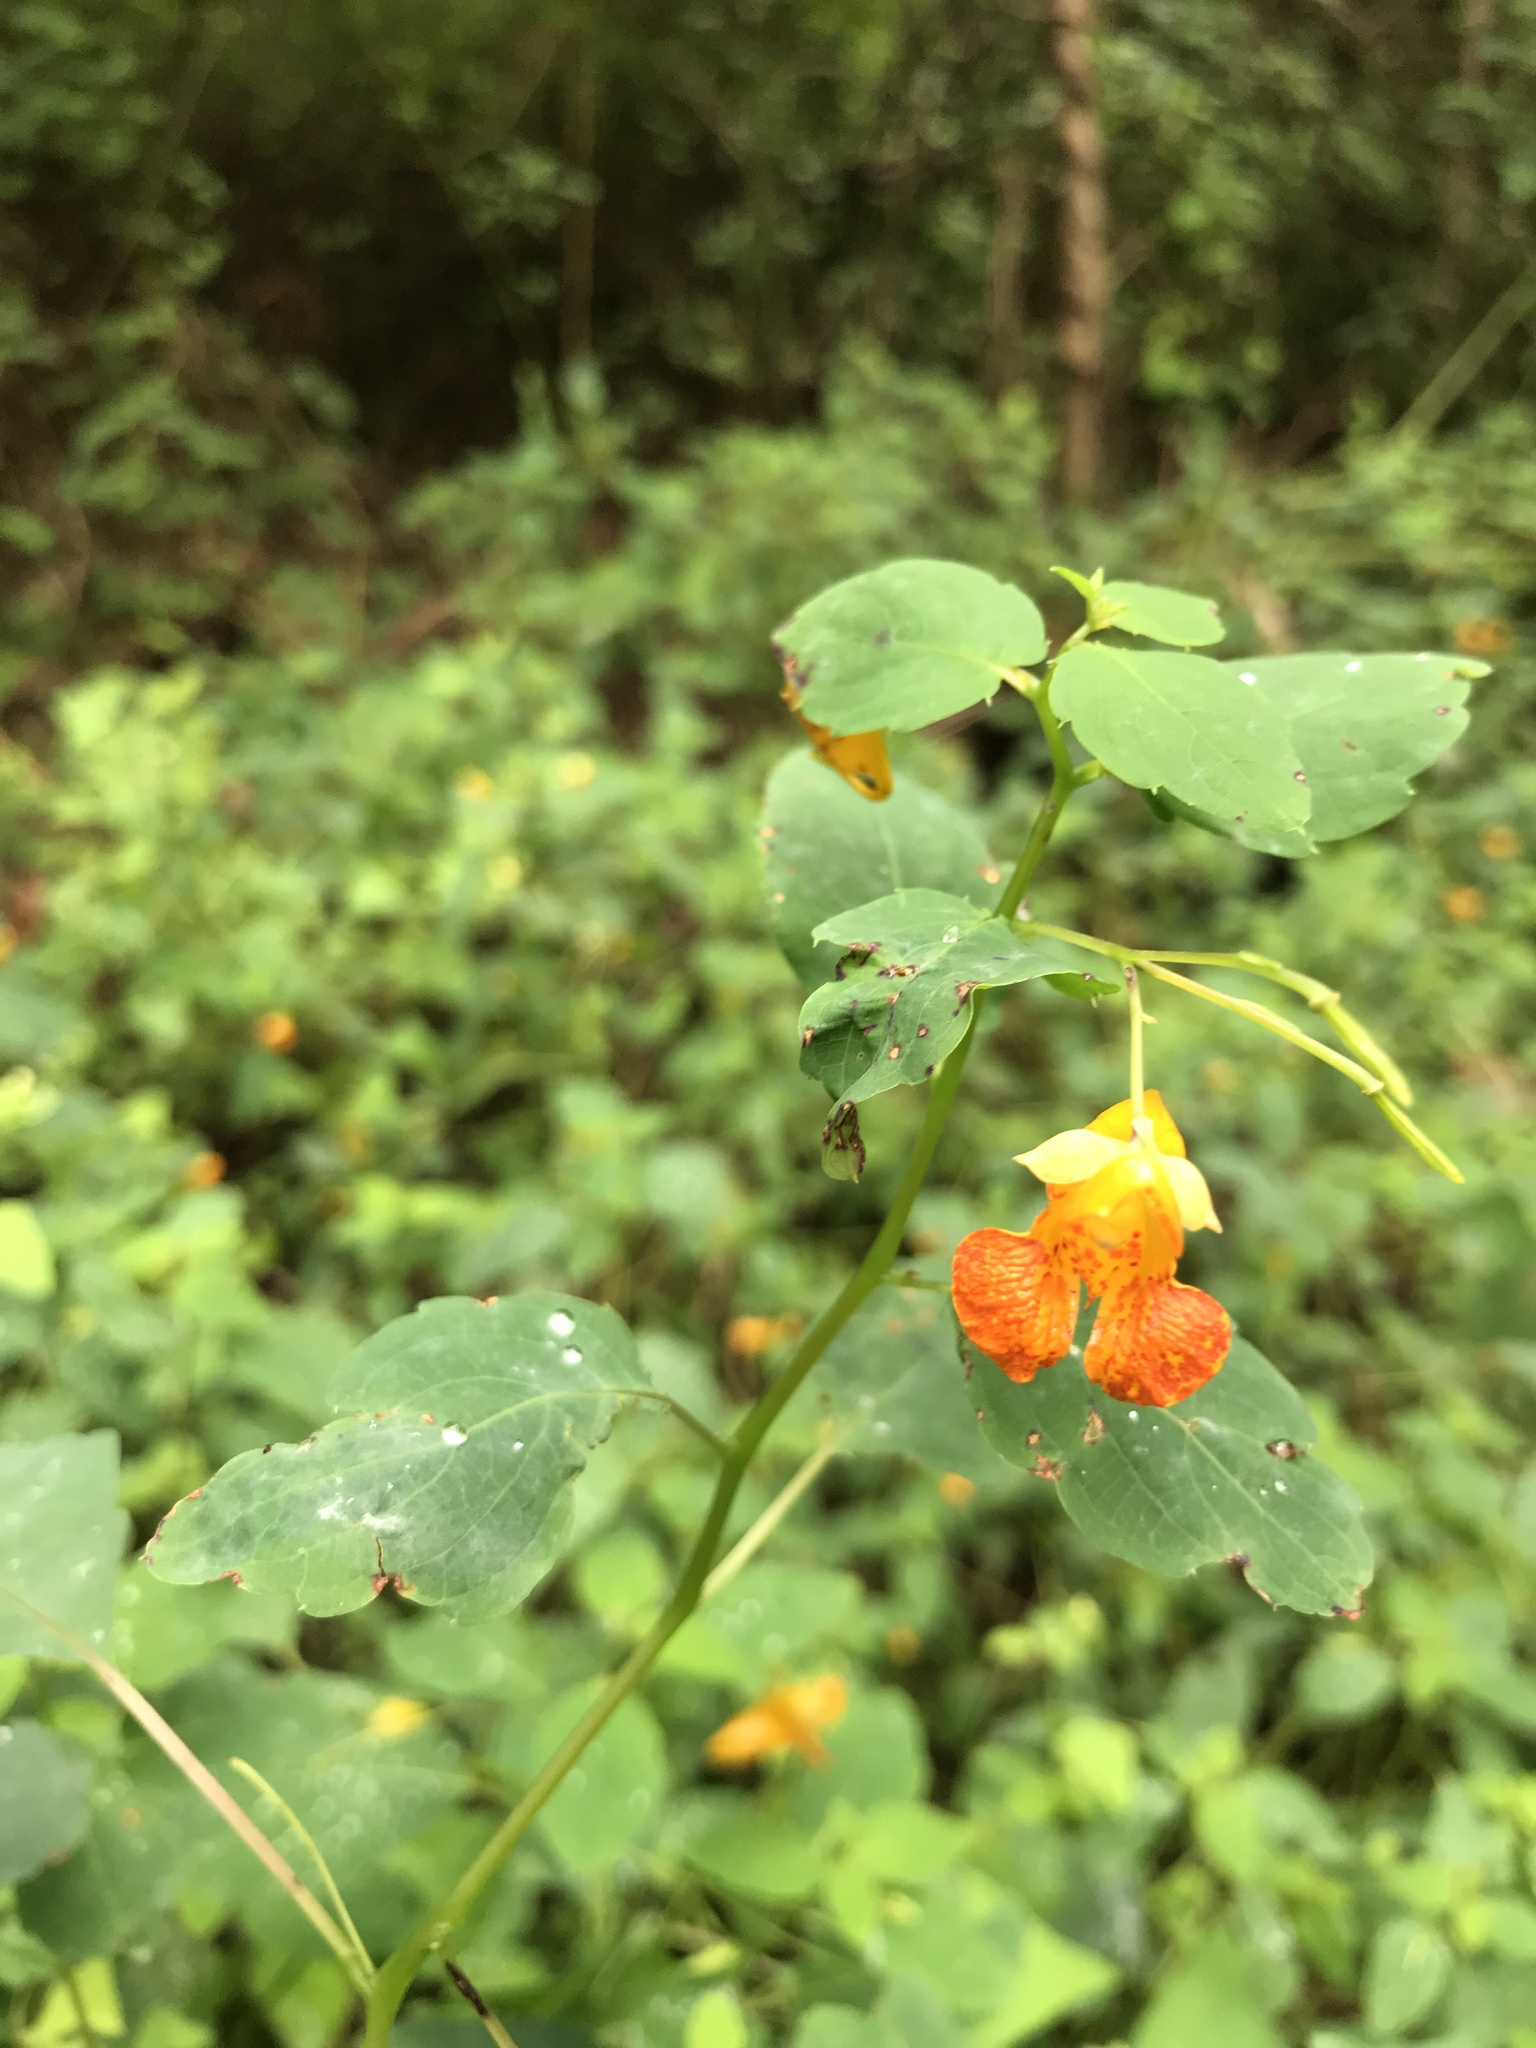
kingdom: Plantae
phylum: Tracheophyta
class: Magnoliopsida
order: Ericales
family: Balsaminaceae
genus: Impatiens
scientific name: Impatiens capensis
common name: Orange balsam
